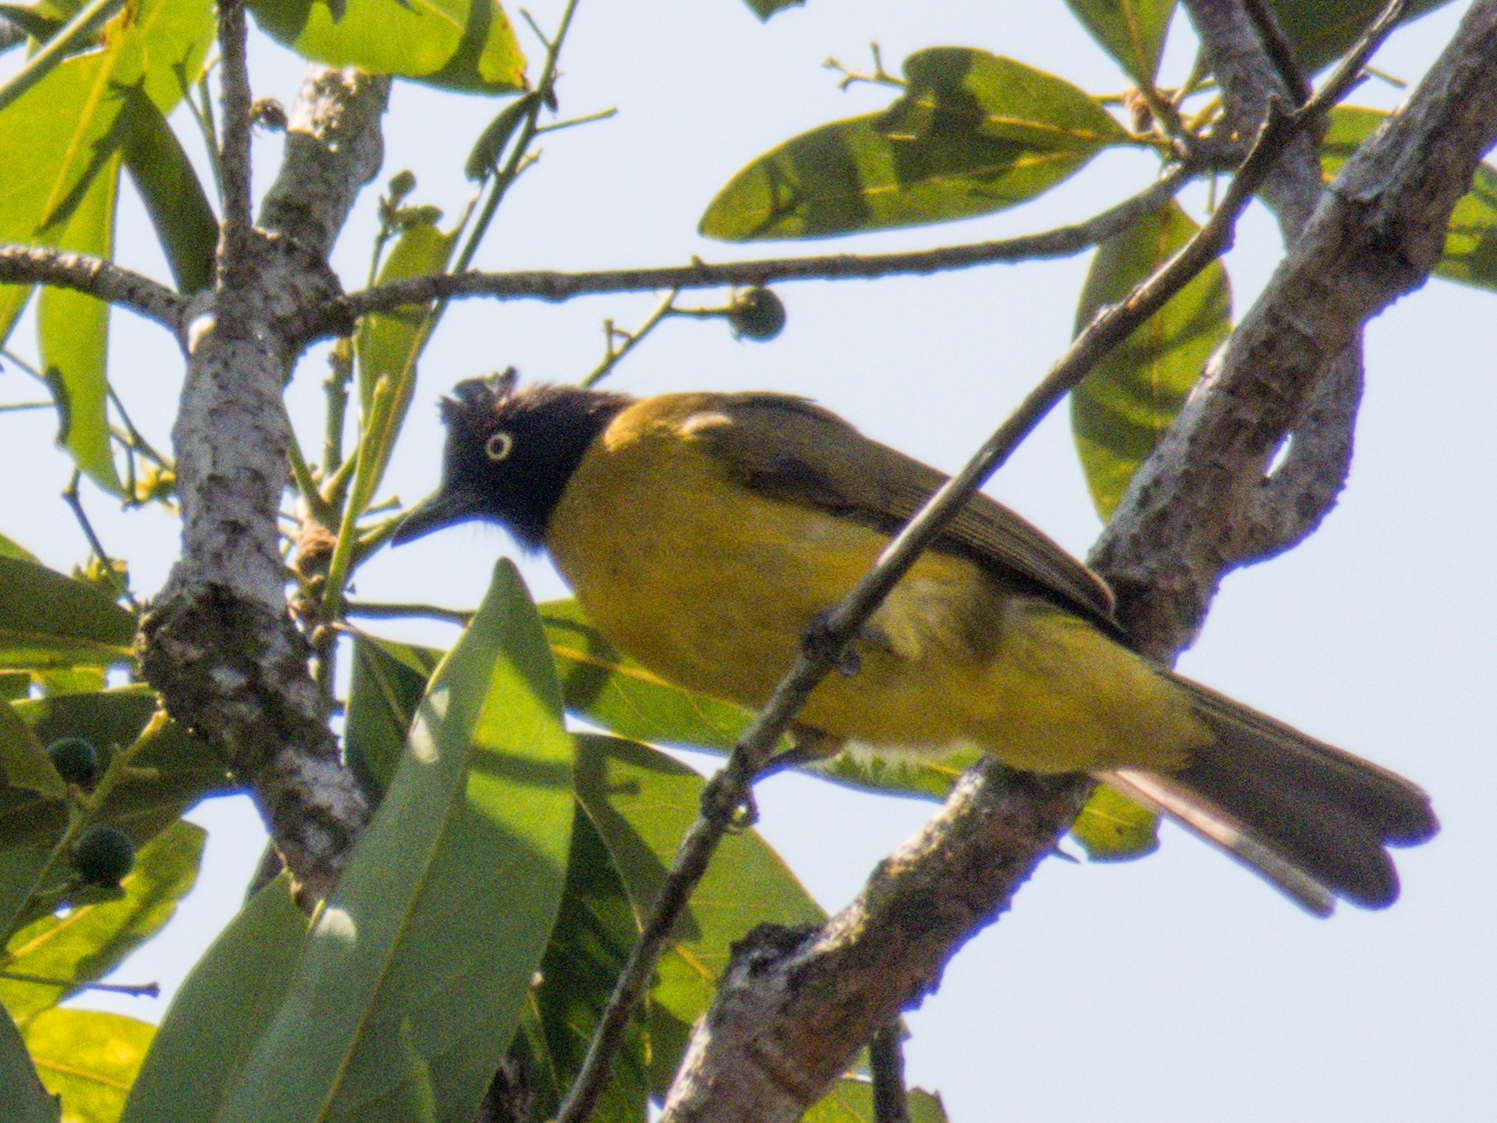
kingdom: Animalia
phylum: Chordata
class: Aves
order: Passeriformes
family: Pycnonotidae
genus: Pycnonotus
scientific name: Pycnonotus flaviventris
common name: Black-crested bulbul
